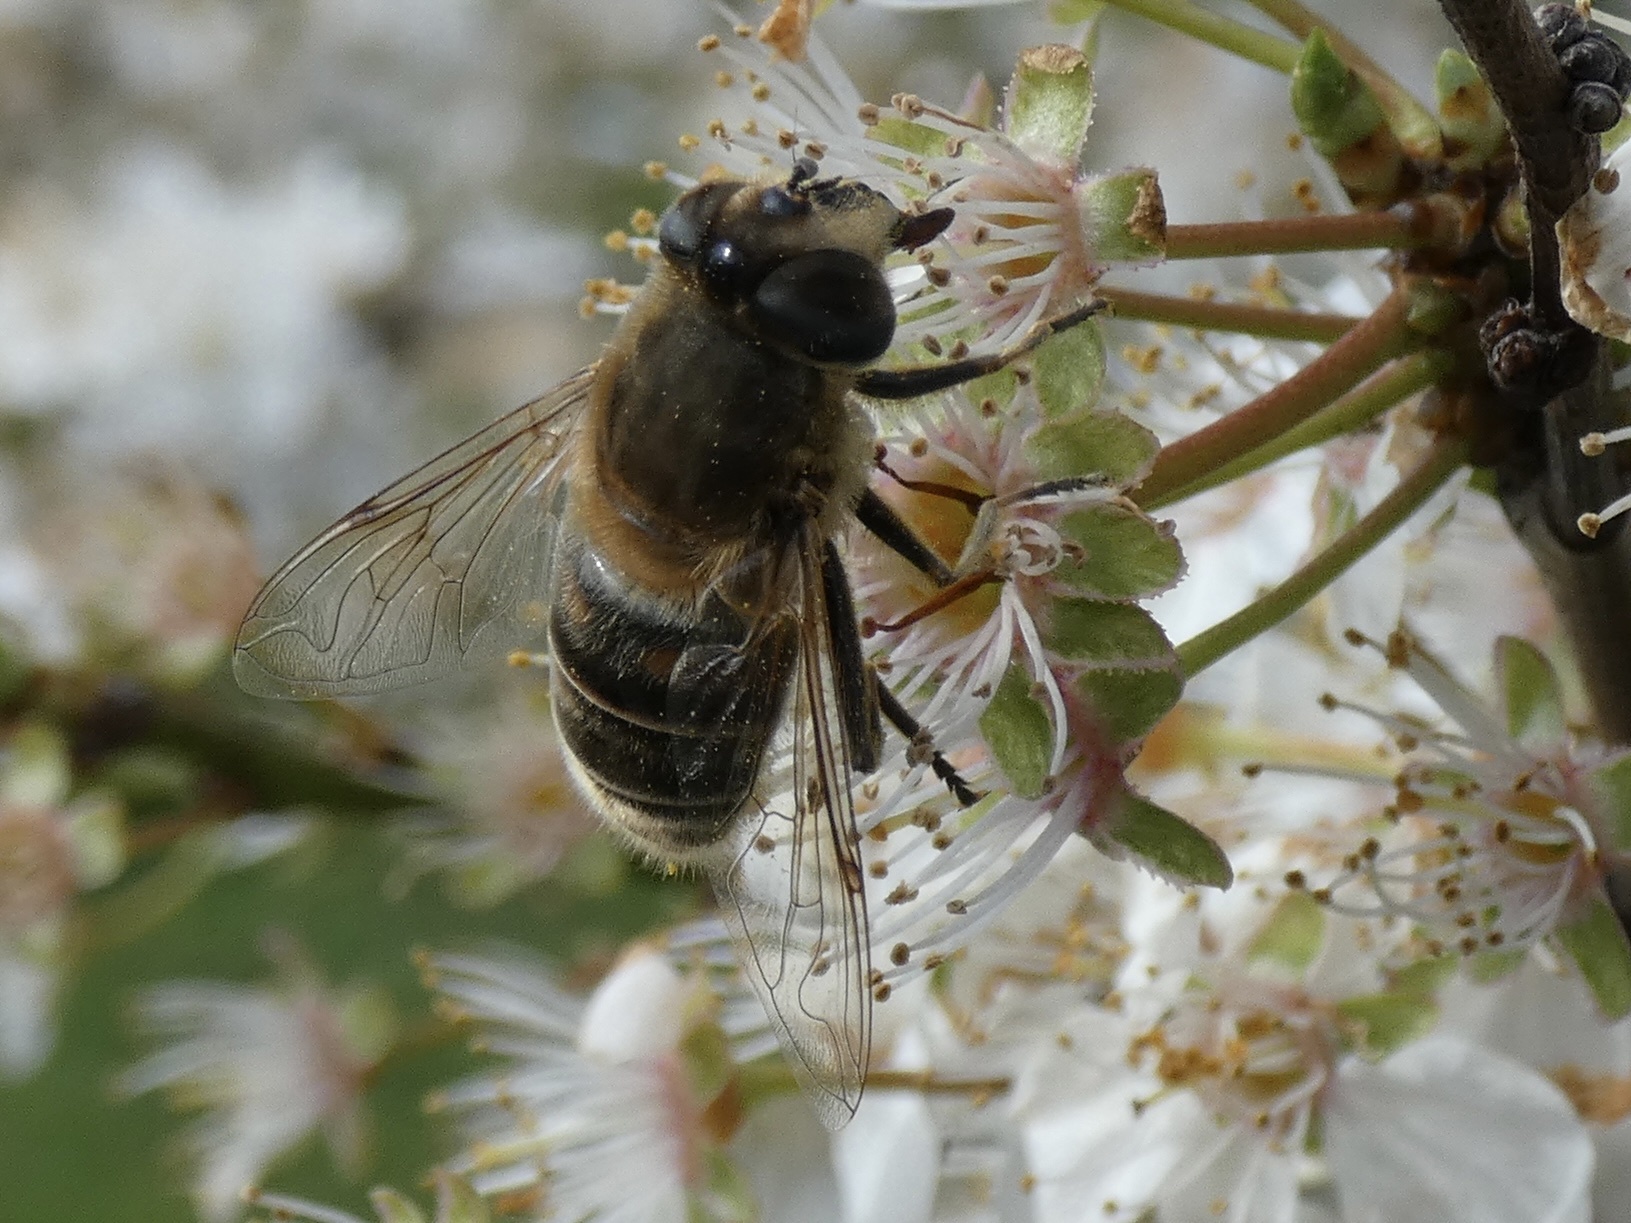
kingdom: Animalia
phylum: Arthropoda
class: Insecta
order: Diptera
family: Syrphidae
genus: Eristalis
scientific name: Eristalis tenax
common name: Drone fly
